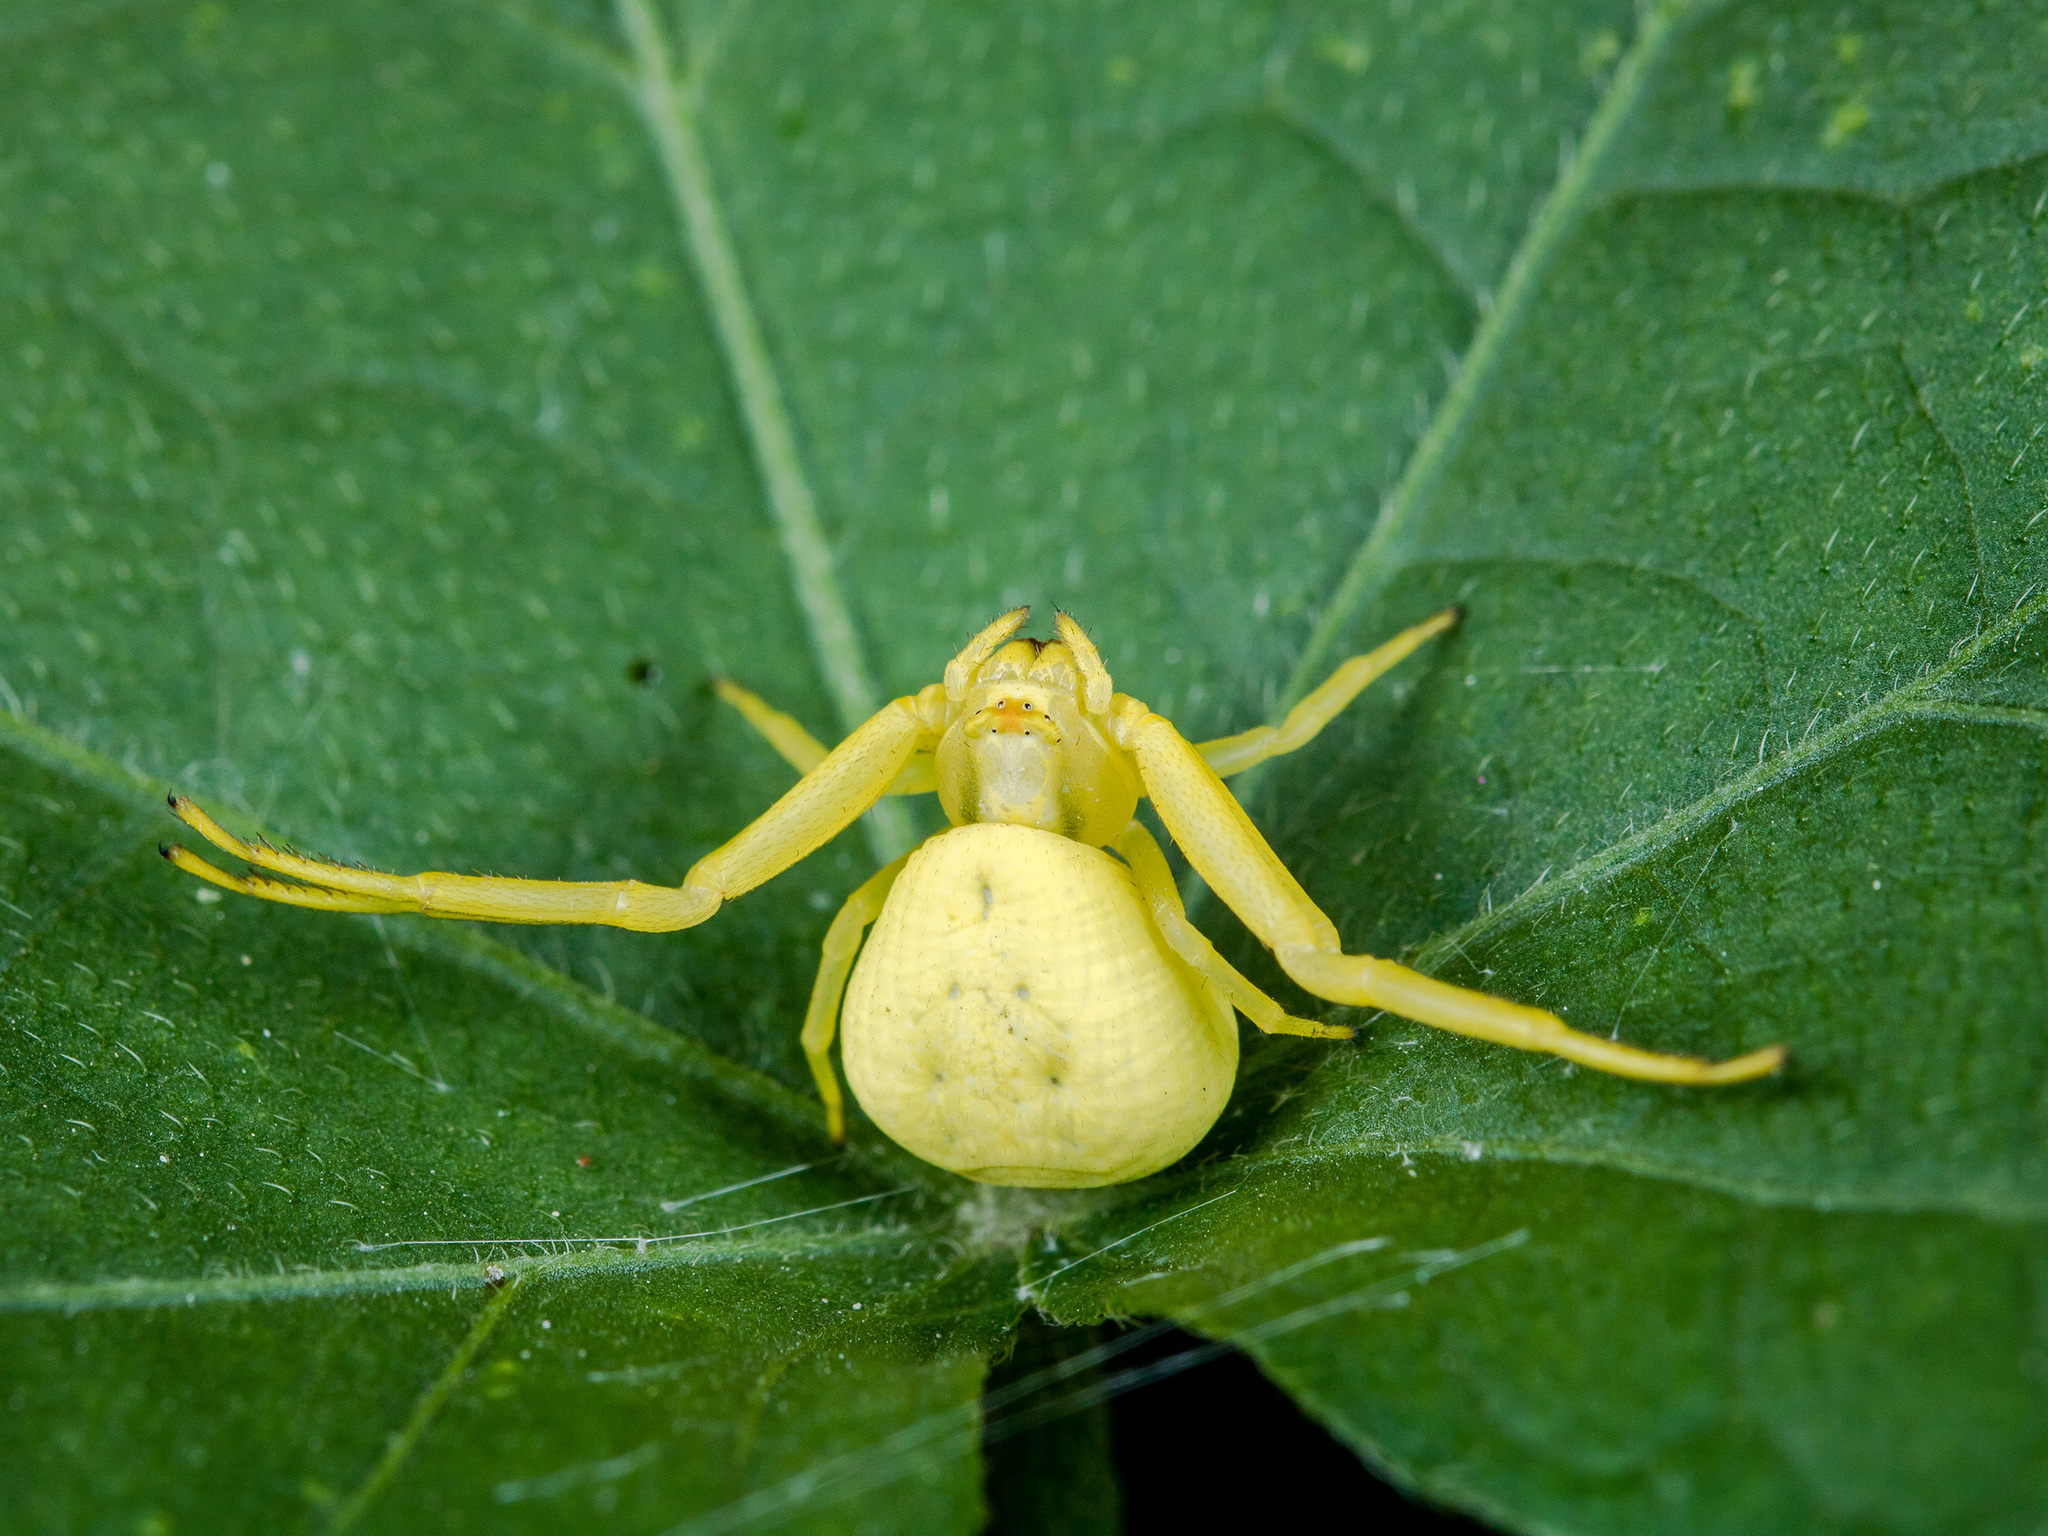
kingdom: Animalia
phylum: Arthropoda
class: Arachnida
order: Araneae
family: Thomisidae
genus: Misumena
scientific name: Misumena vatia
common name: Goldenrod crab spider
